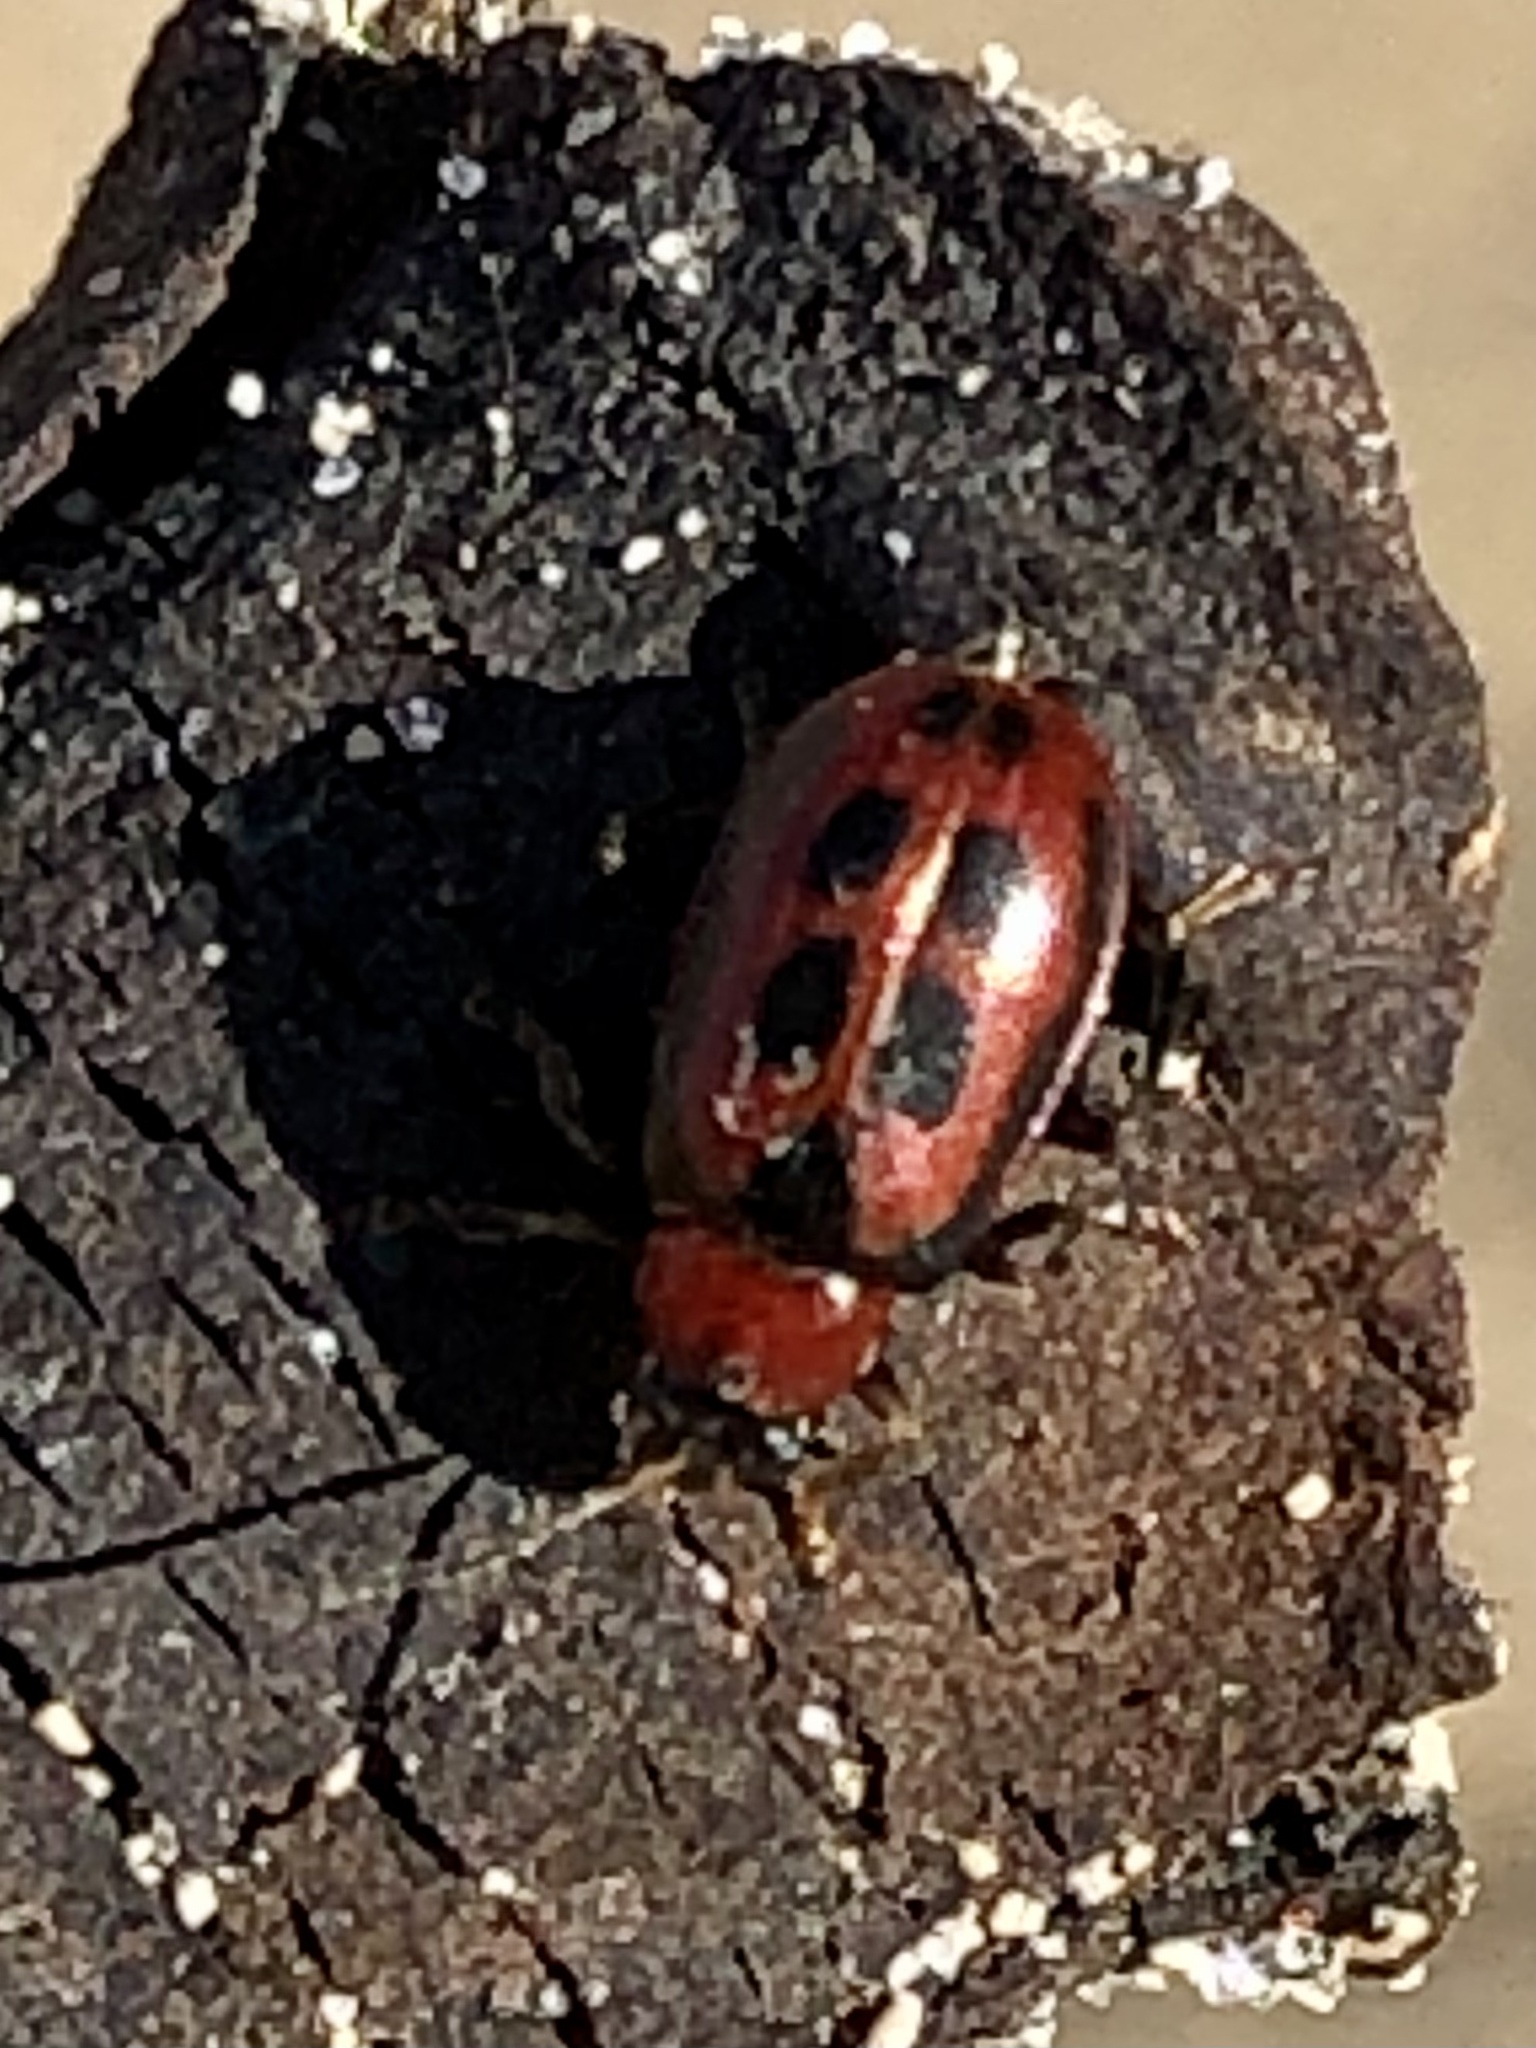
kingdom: Animalia
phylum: Arthropoda
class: Insecta
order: Coleoptera
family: Chrysomelidae
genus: Cerotoma
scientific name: Cerotoma trifurcata
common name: Bean leaf beetle
